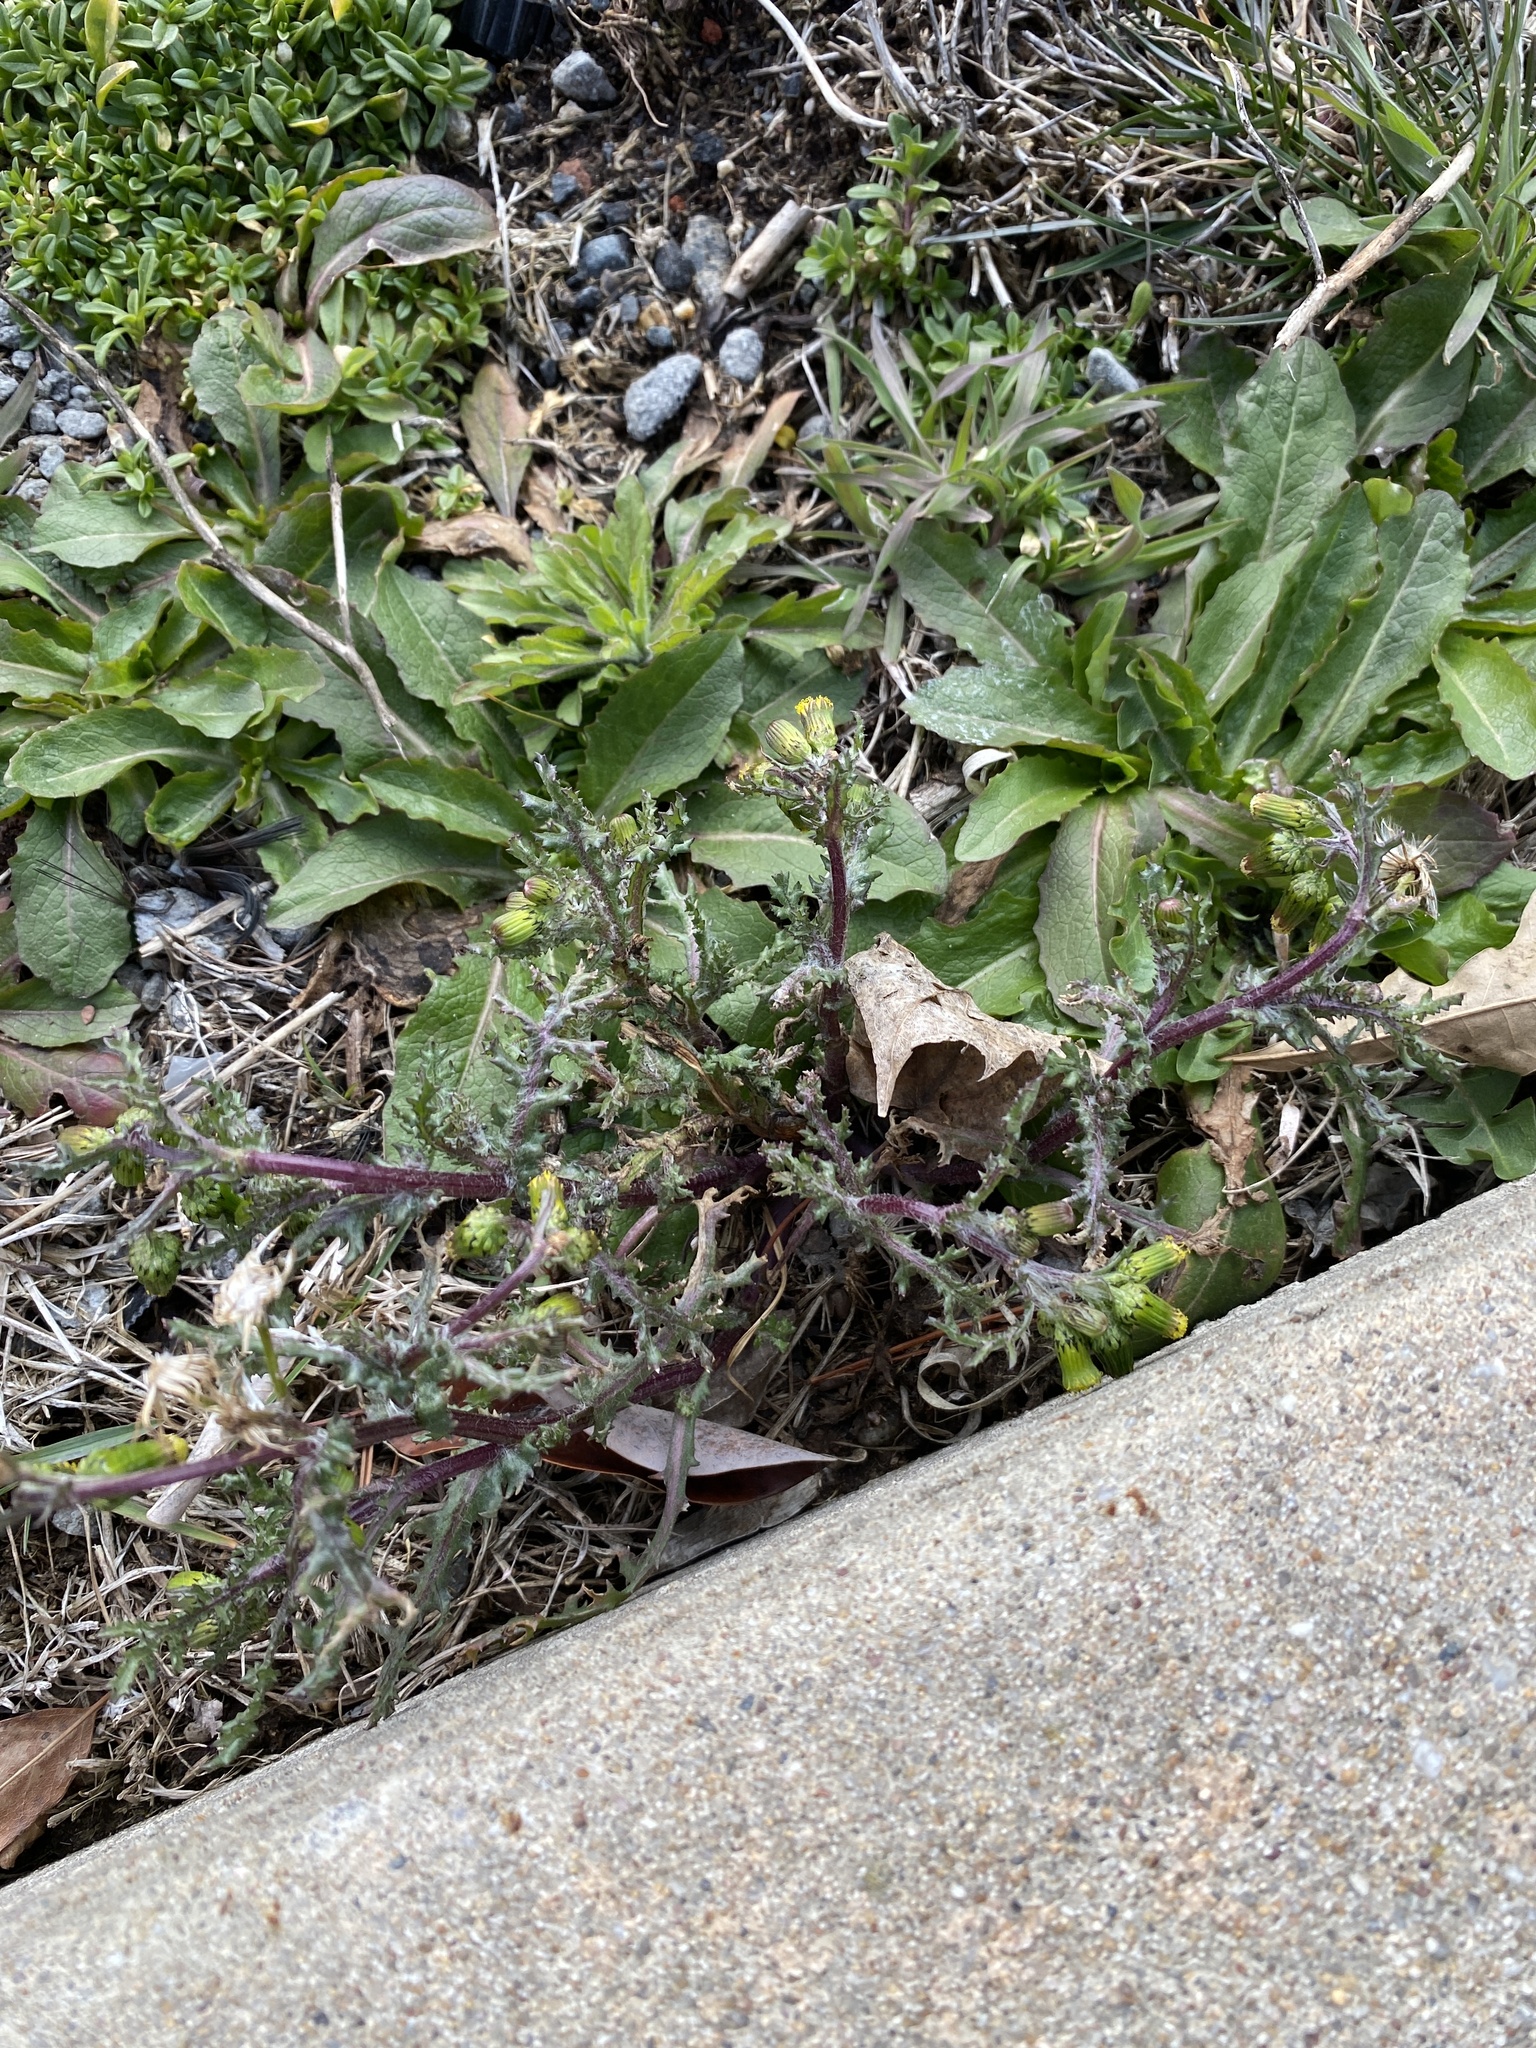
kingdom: Plantae
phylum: Tracheophyta
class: Magnoliopsida
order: Asterales
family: Asteraceae
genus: Senecio
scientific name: Senecio vulgaris
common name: Old-man-in-the-spring
